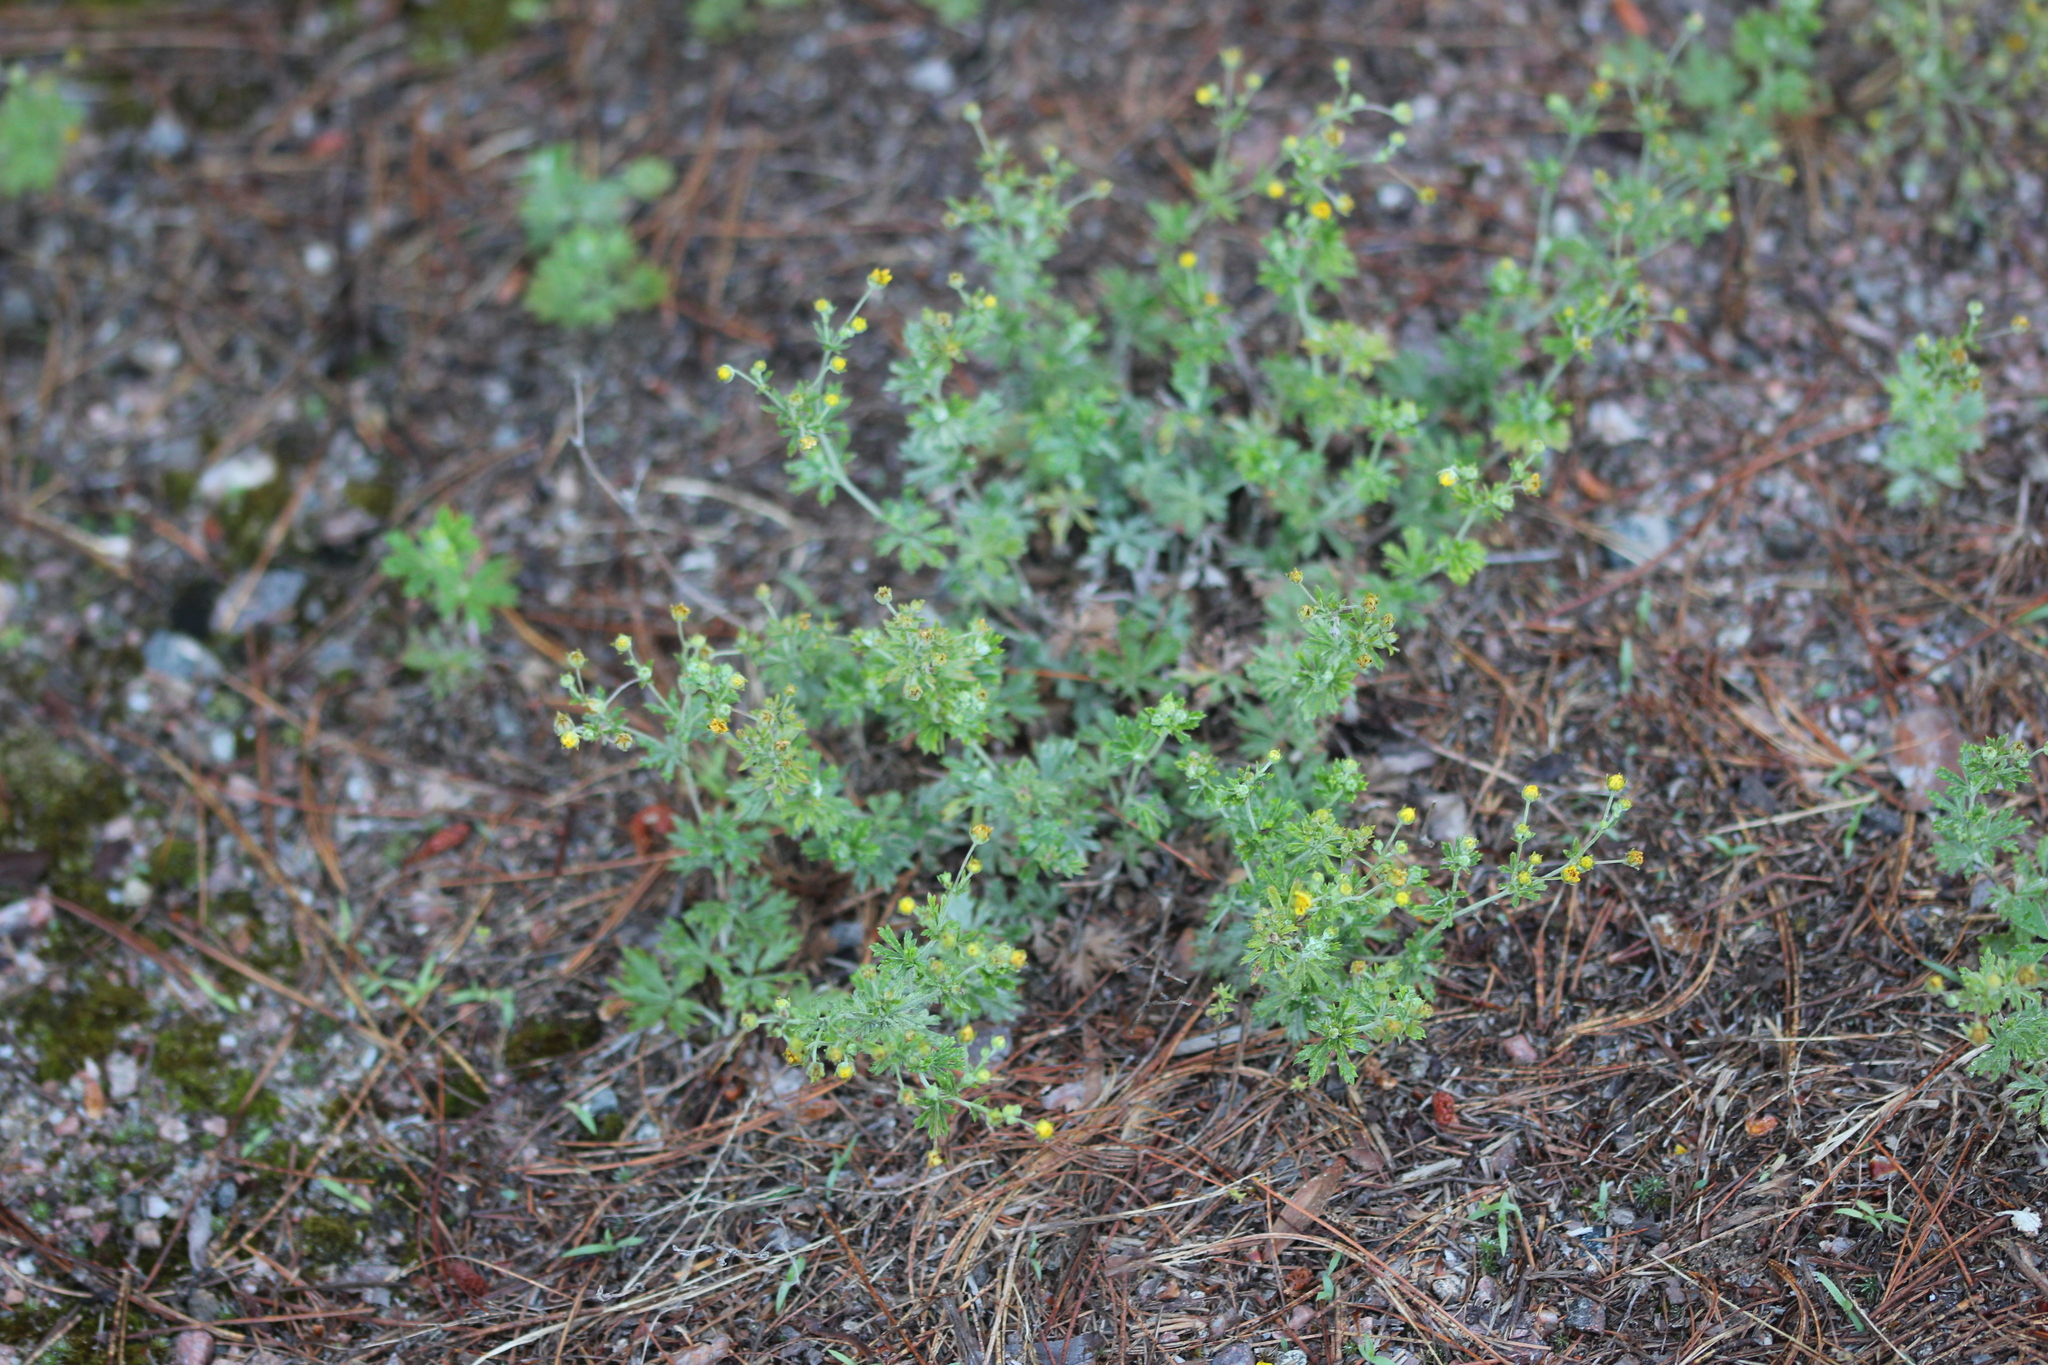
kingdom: Plantae
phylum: Tracheophyta
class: Magnoliopsida
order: Rosales
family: Rosaceae
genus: Potentilla
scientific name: Potentilla argentea
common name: Hoary cinquefoil
